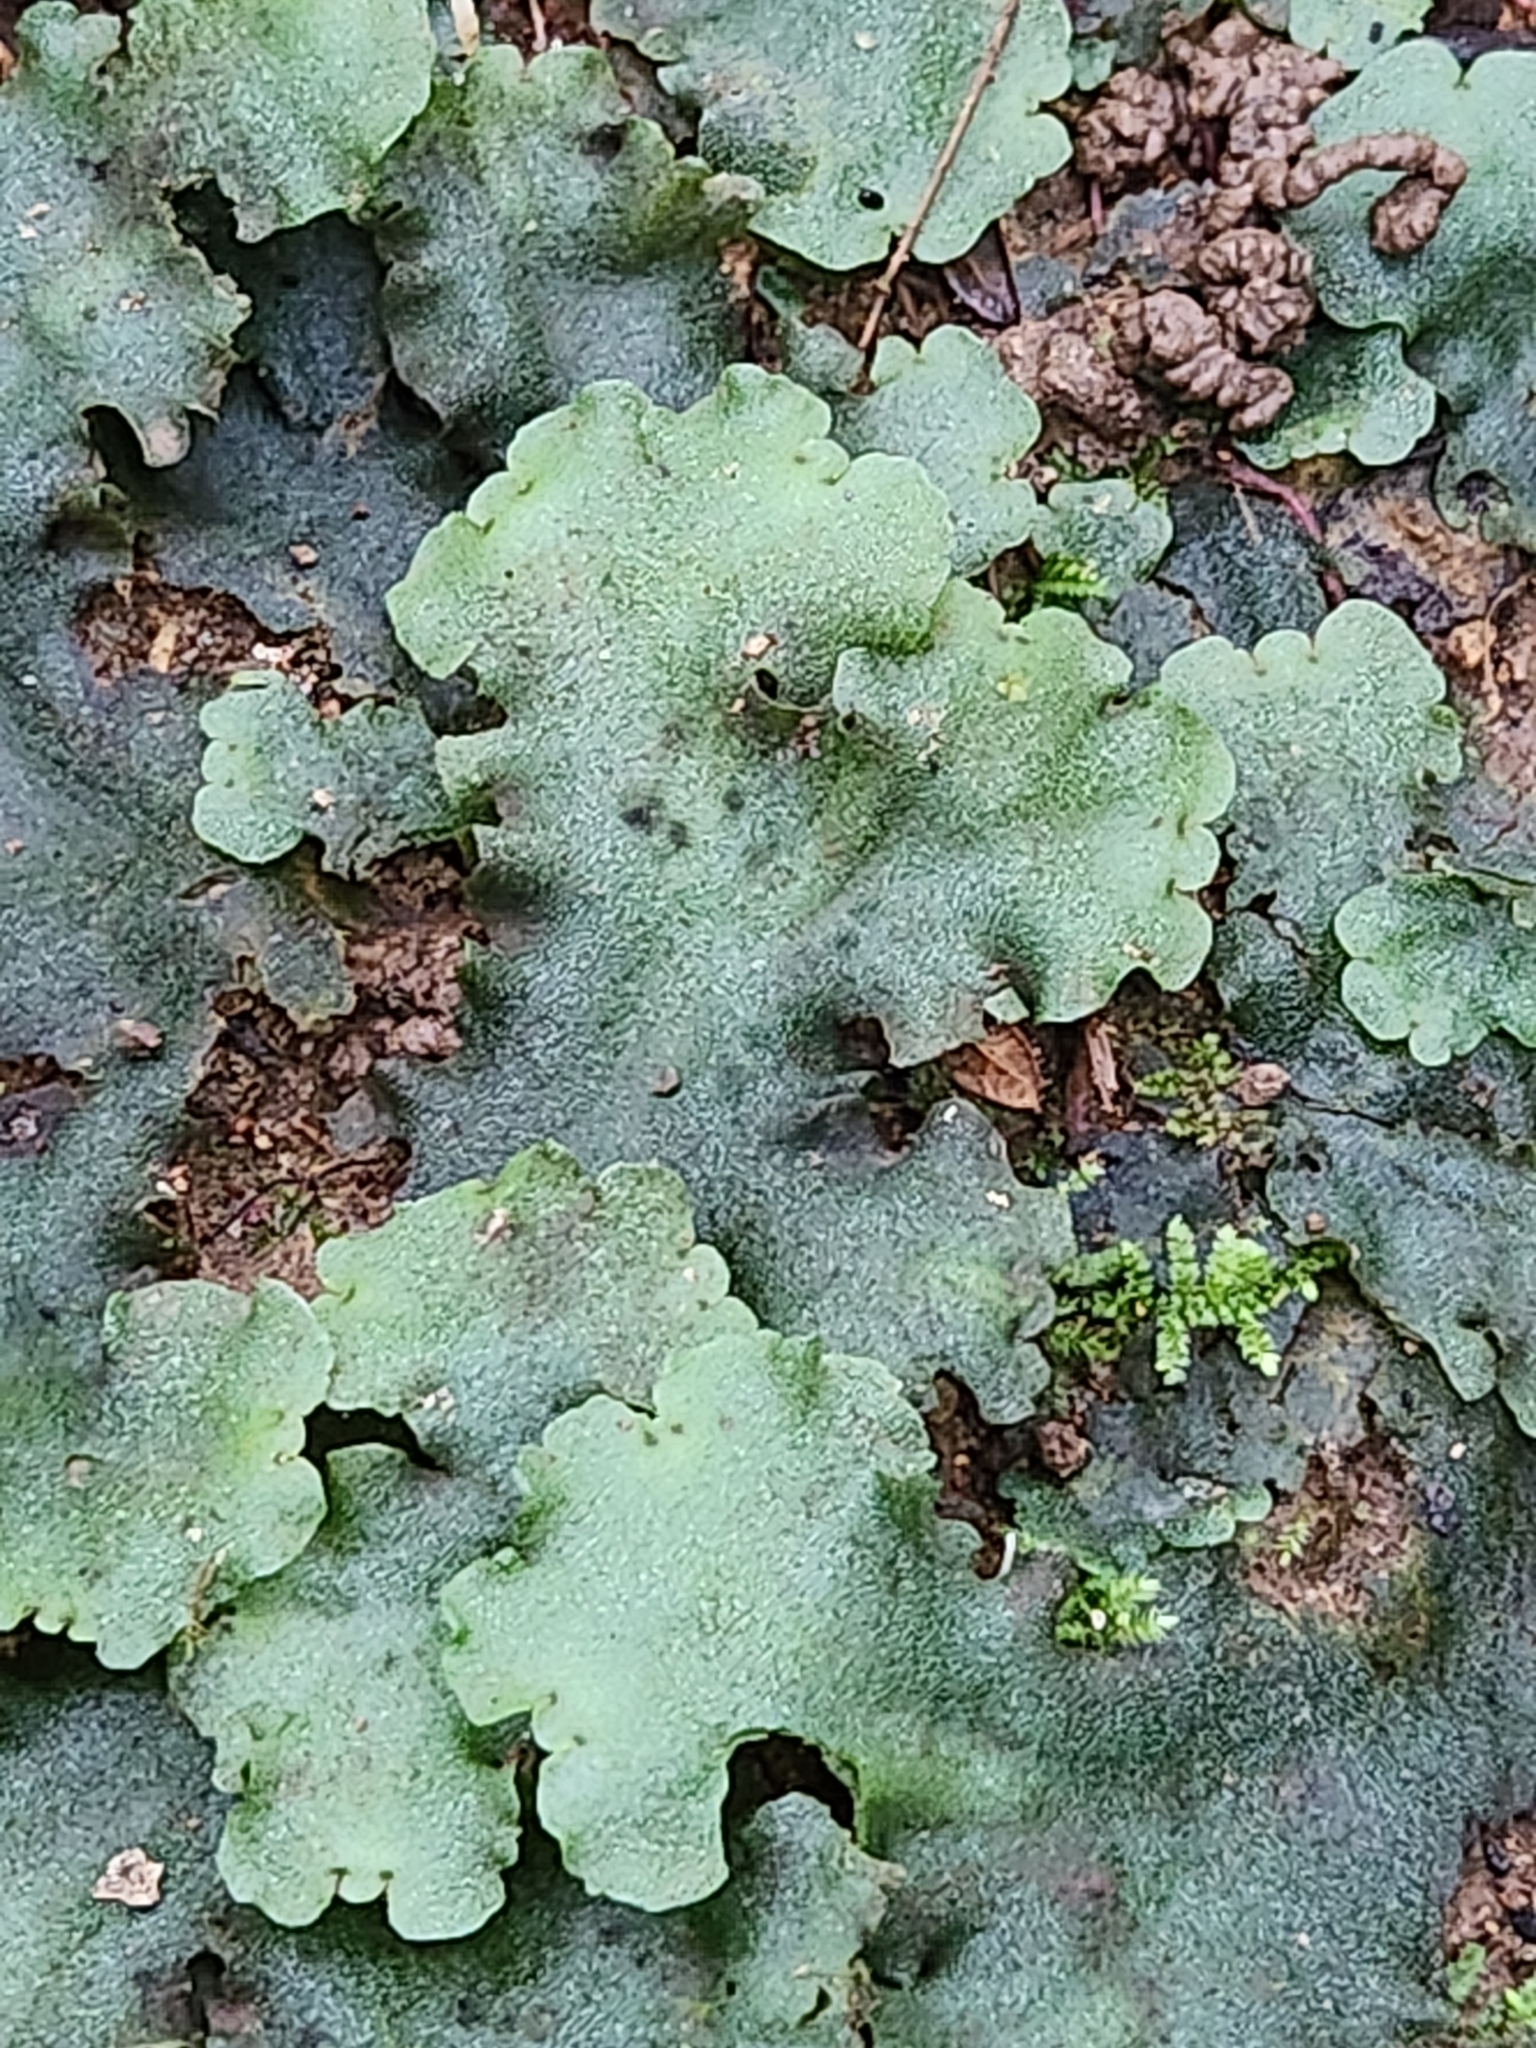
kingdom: Plantae
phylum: Marchantiophyta
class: Marchantiopsida
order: Marchantiales
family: Monocleaceae
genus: Monoclea
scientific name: Monoclea gottschei
